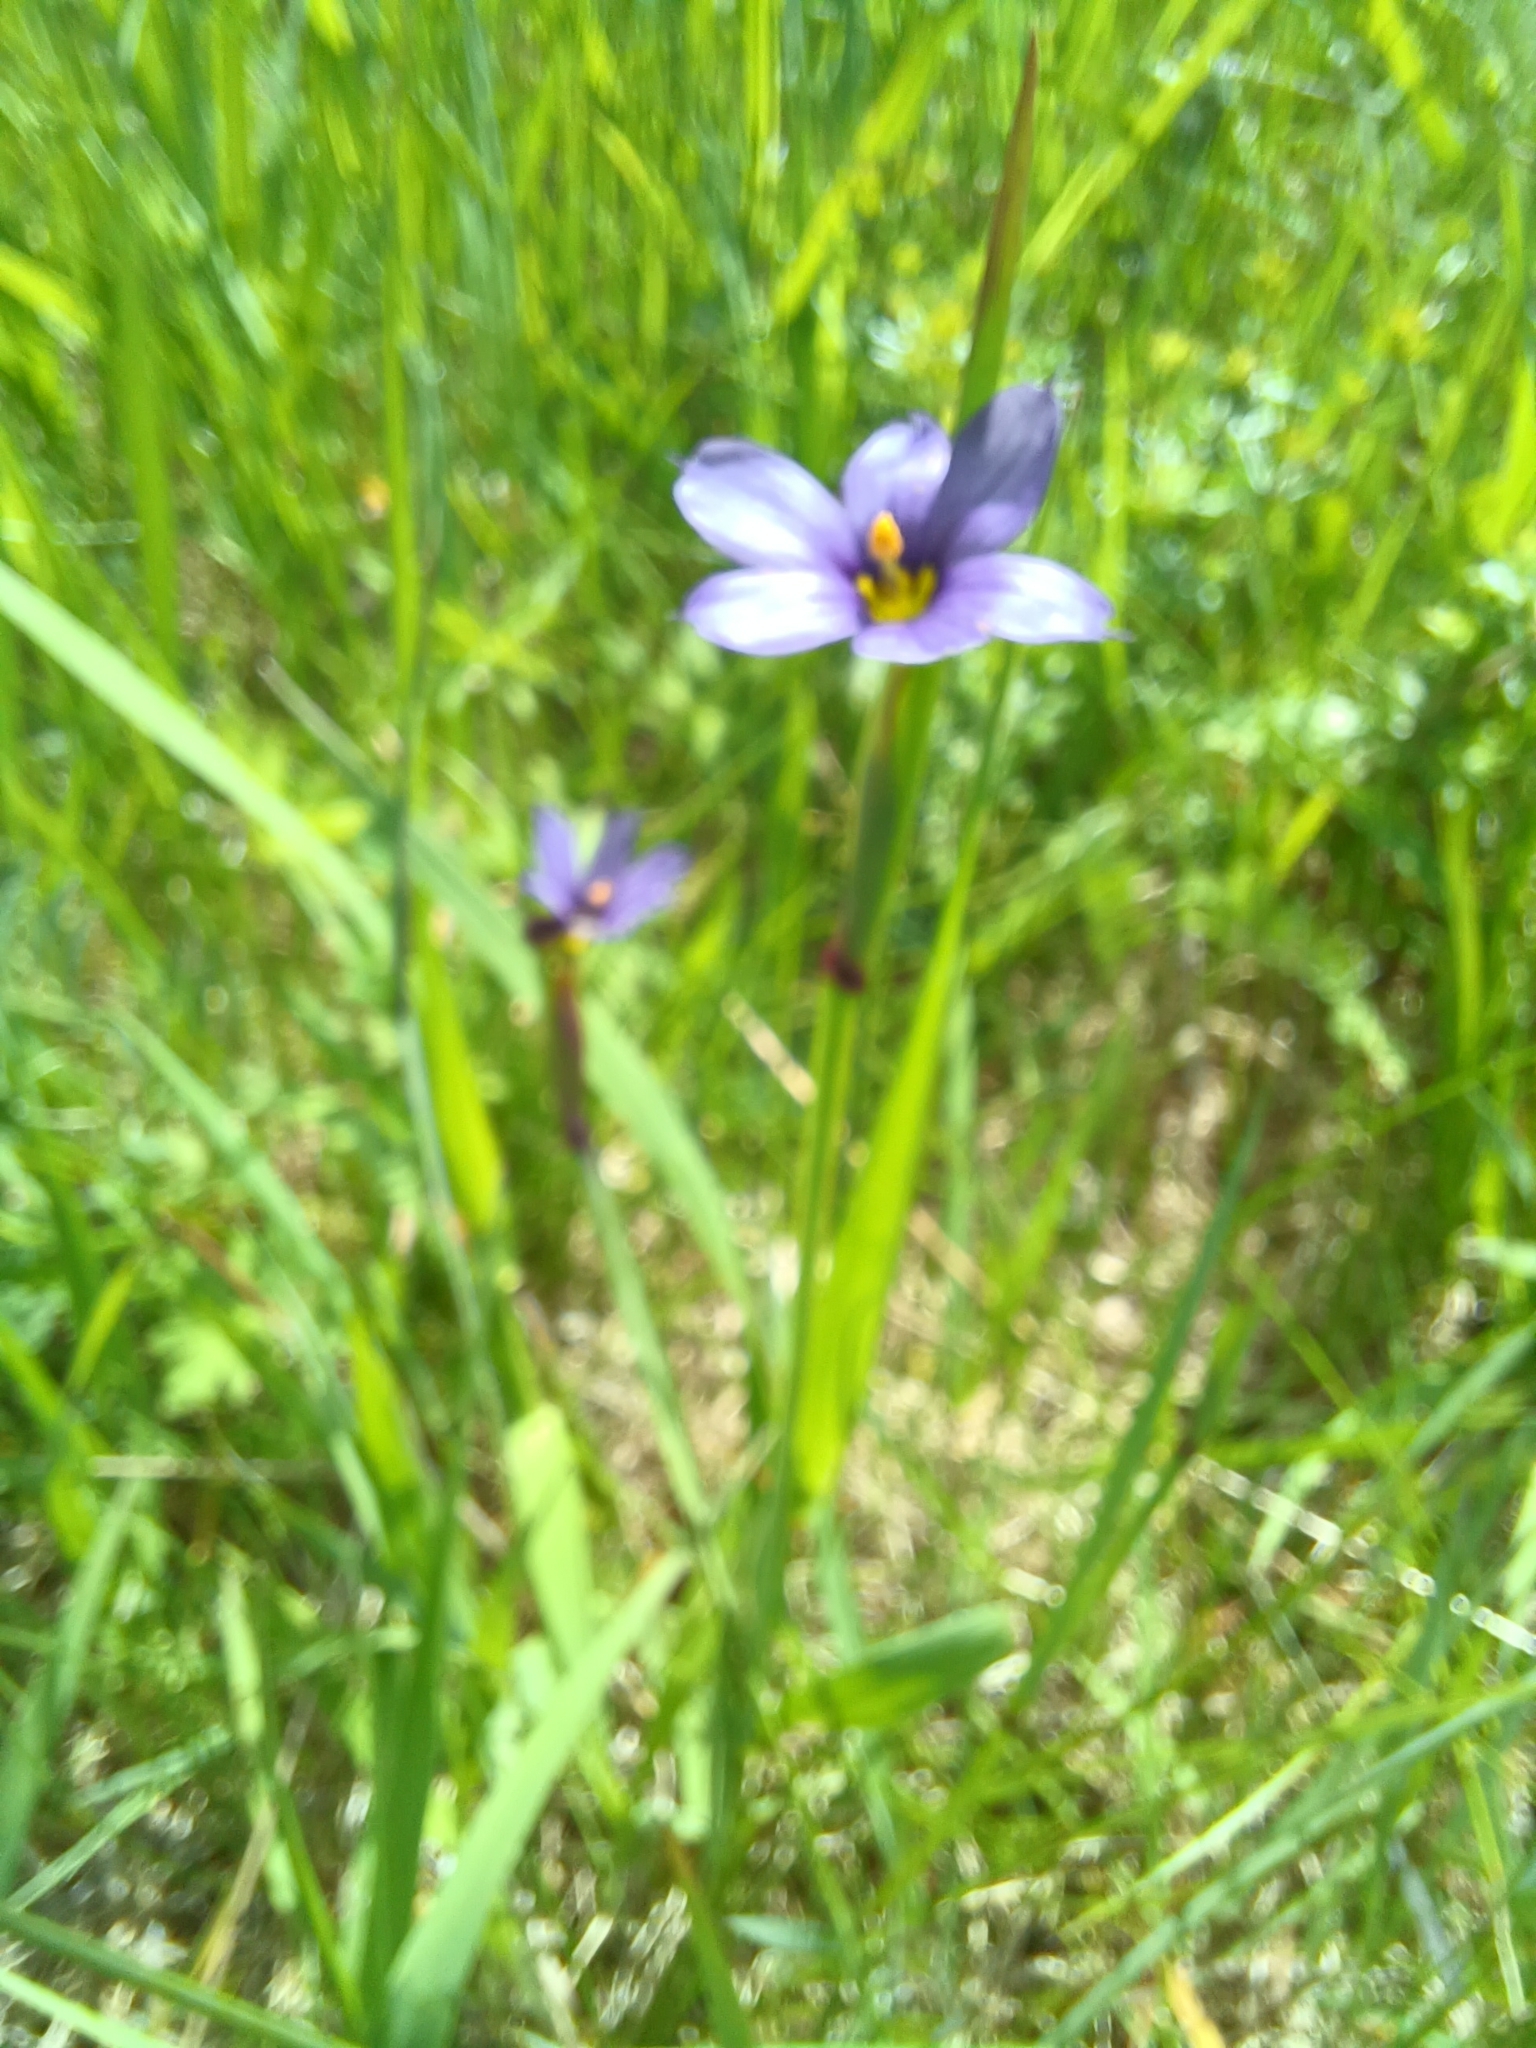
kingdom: Plantae
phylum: Tracheophyta
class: Liliopsida
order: Asparagales
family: Iridaceae
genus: Sisyrinchium
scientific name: Sisyrinchium montanum
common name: American blue-eyed-grass
